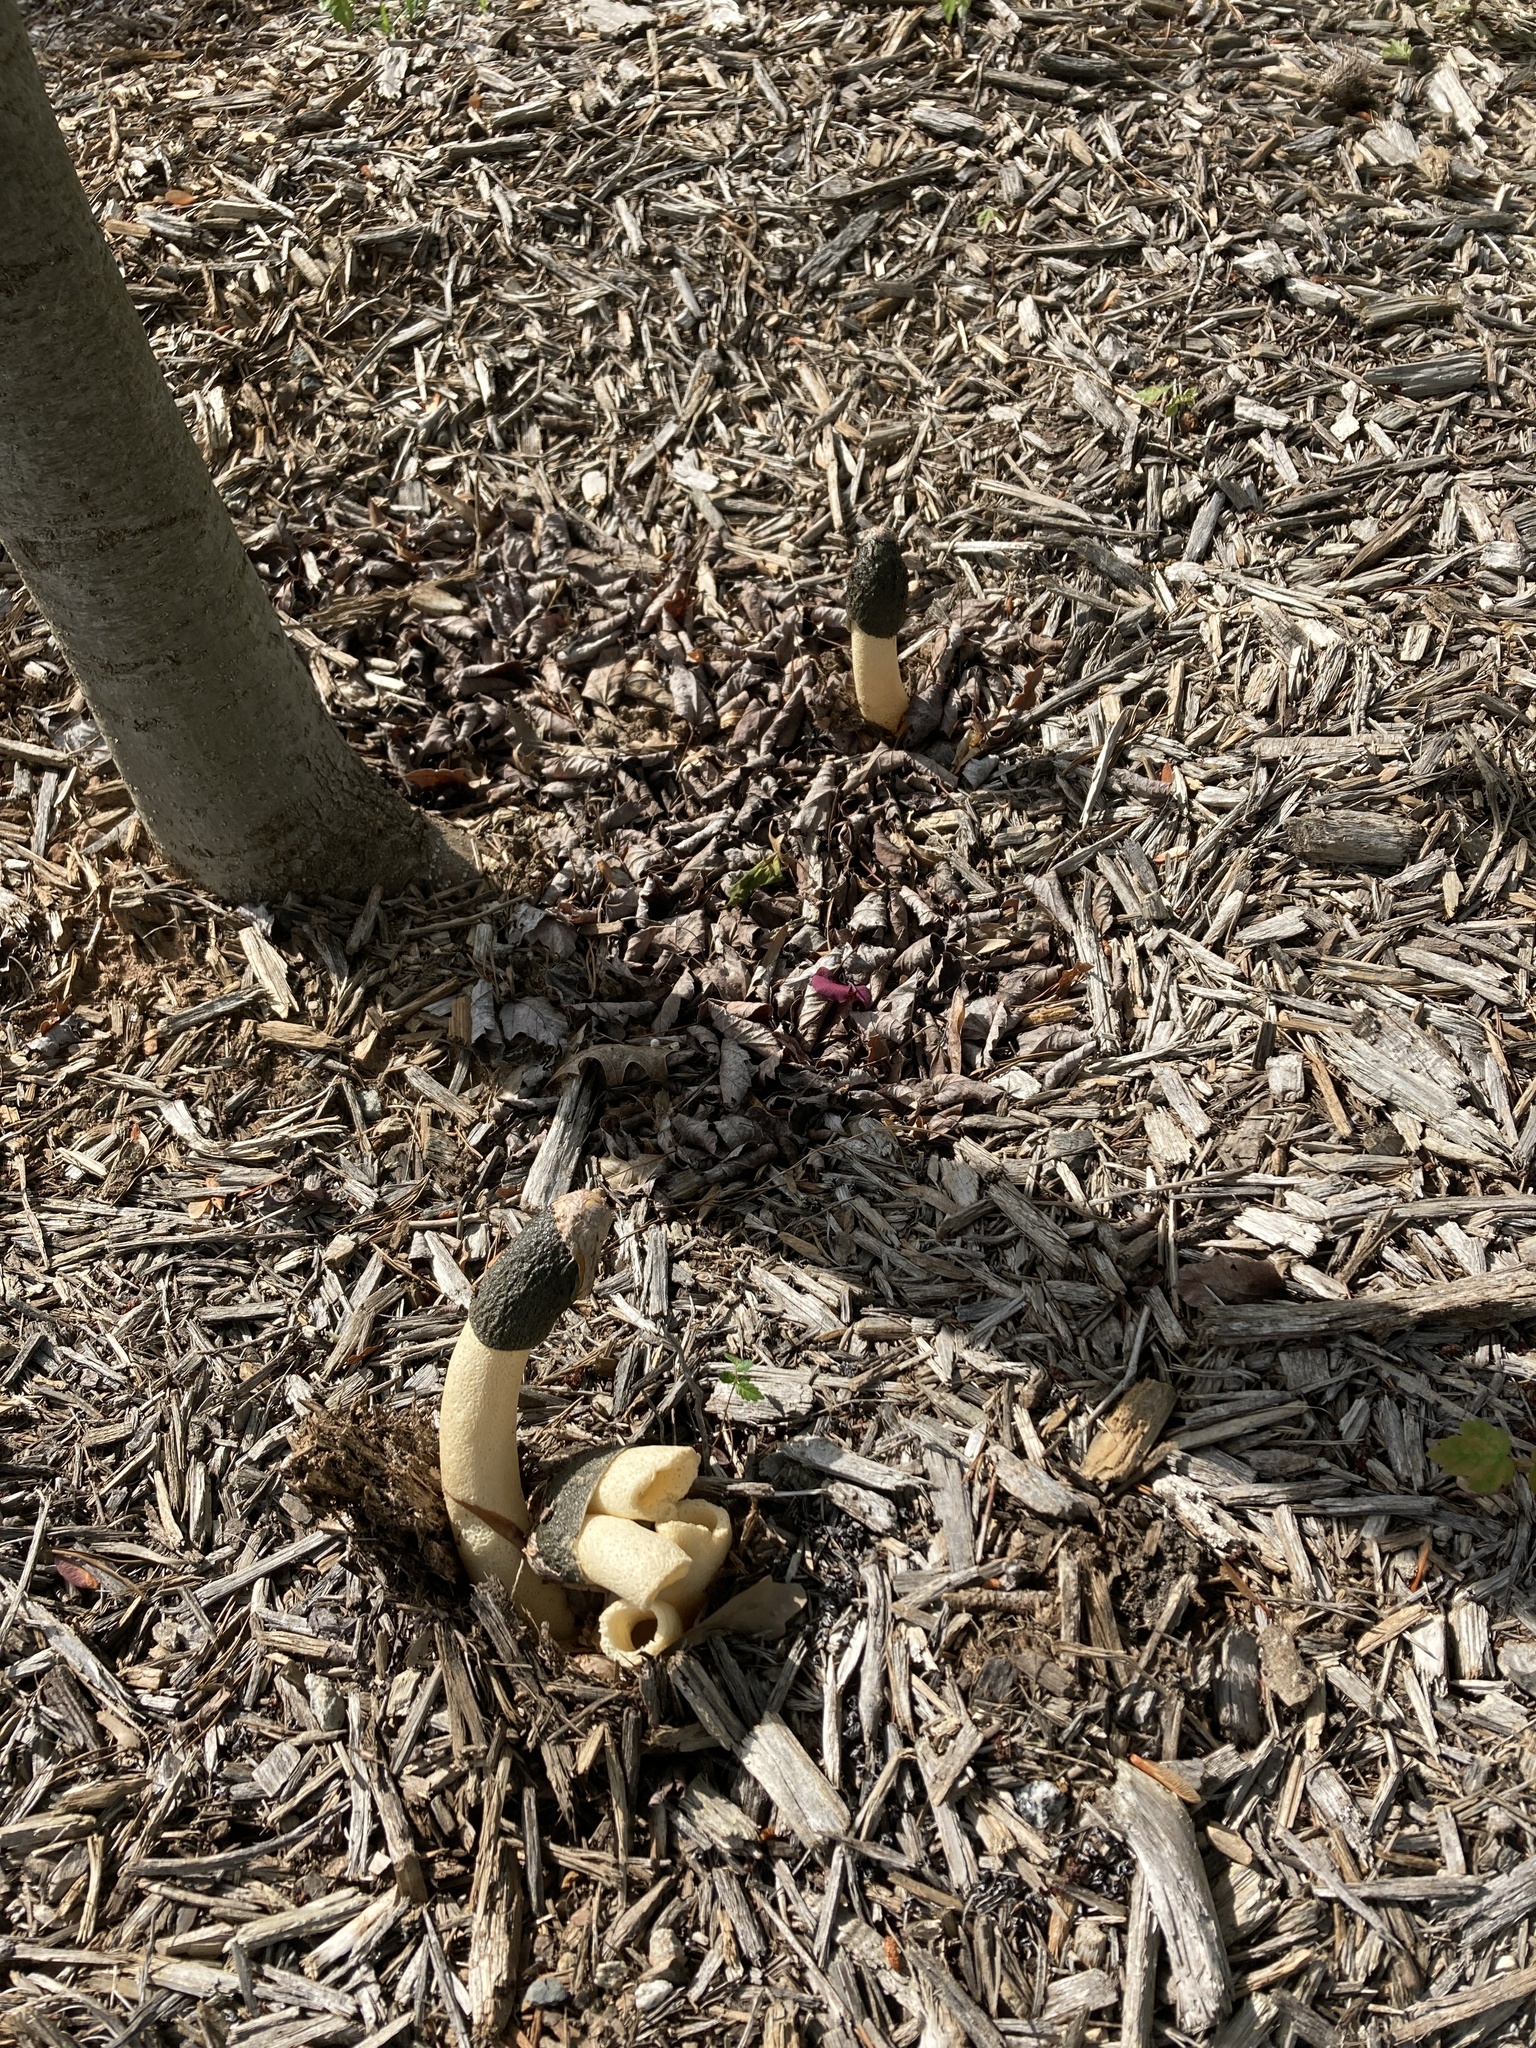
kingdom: Fungi
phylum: Basidiomycota
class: Agaricomycetes
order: Phallales
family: Phallaceae
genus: Phallus
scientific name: Phallus ravenelii
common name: Ravenel's stinkhorn
